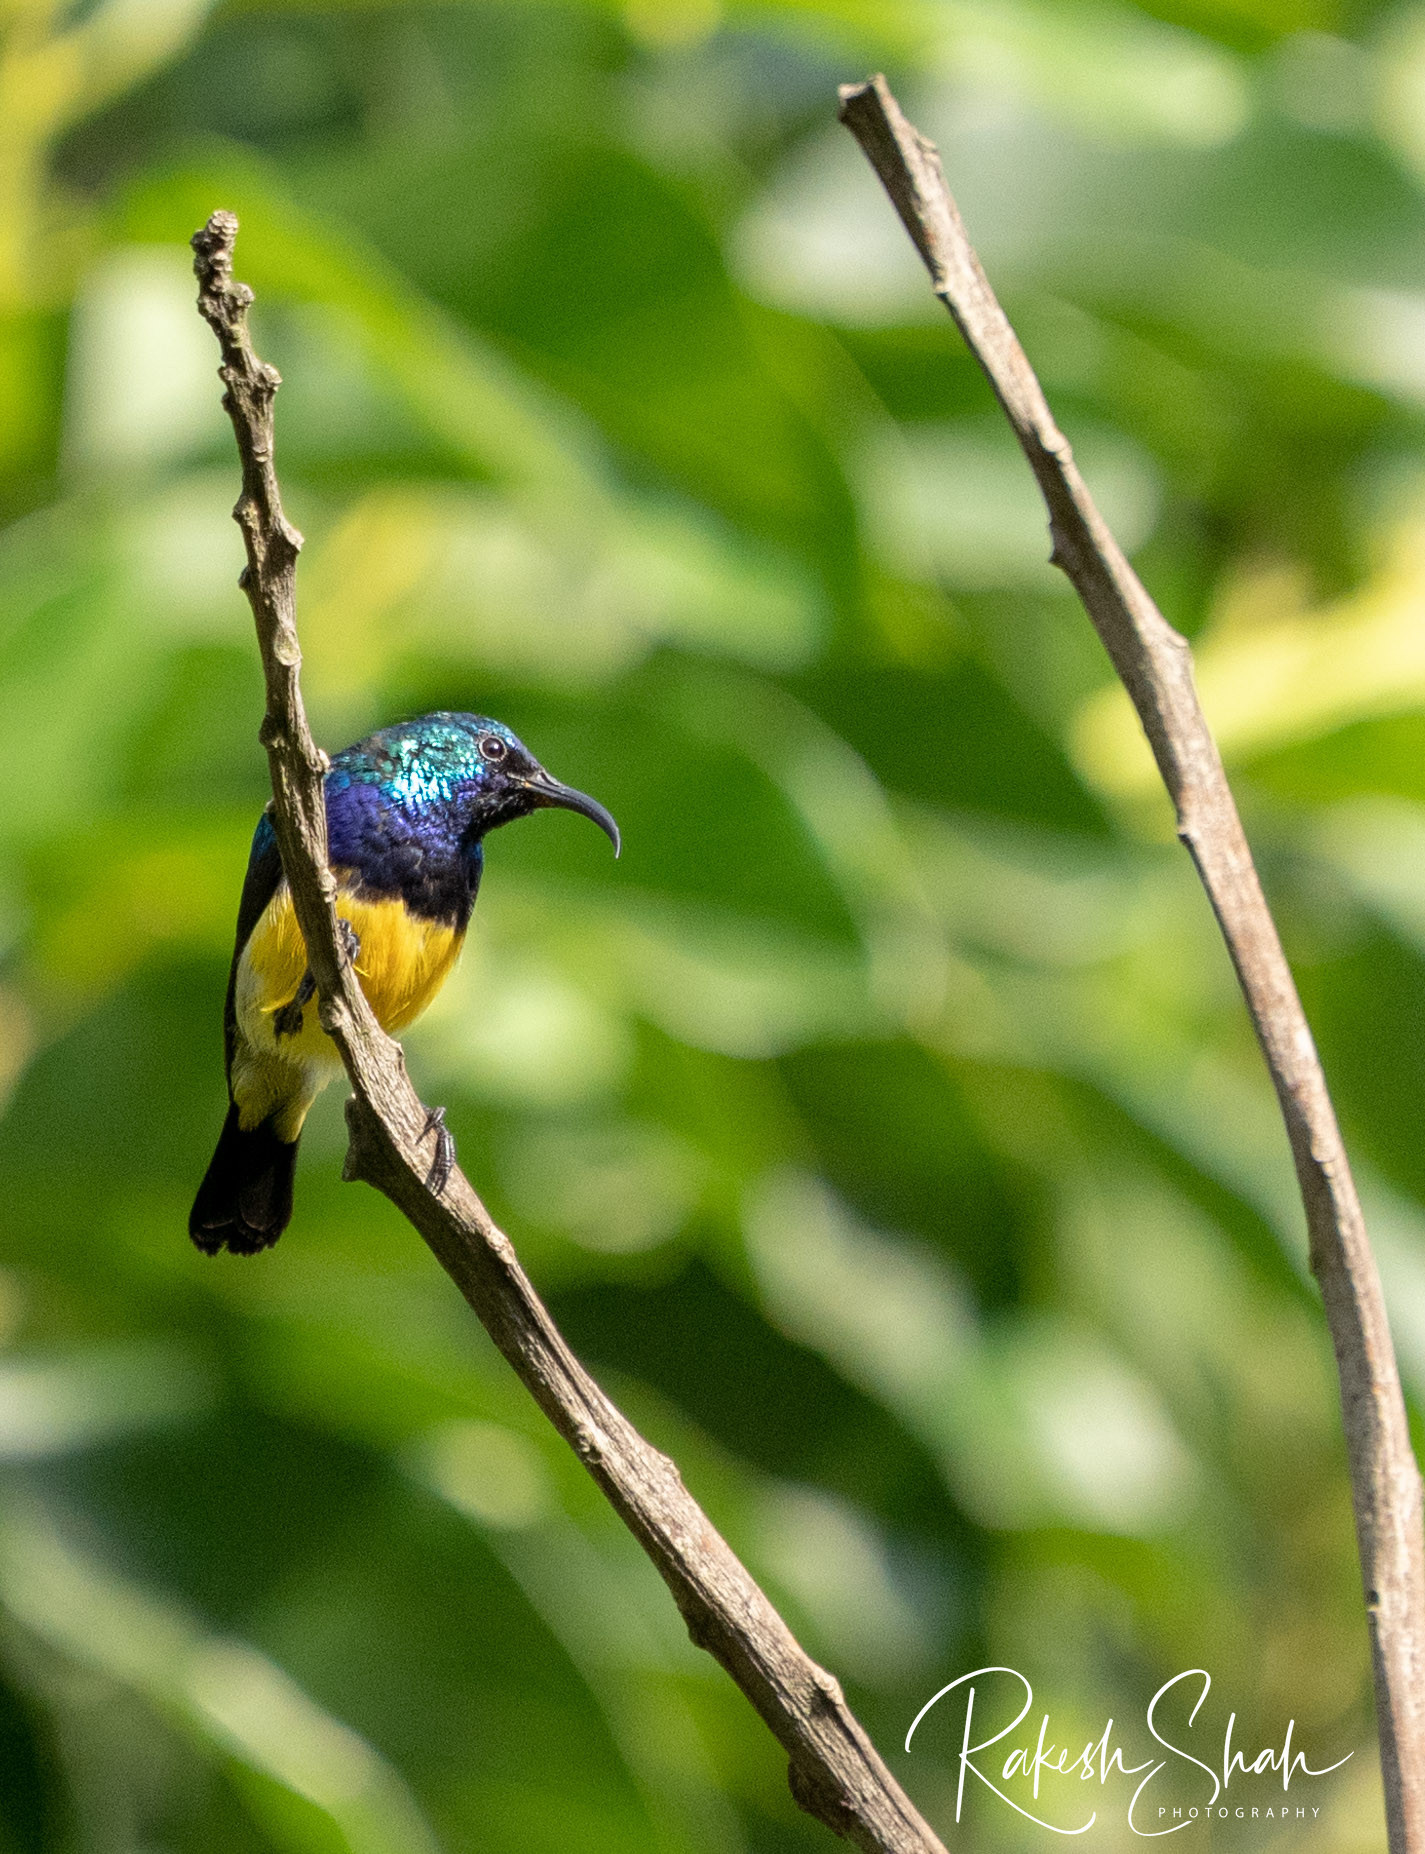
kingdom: Animalia
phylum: Chordata
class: Aves
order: Passeriformes
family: Nectariniidae
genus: Cinnyris
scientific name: Cinnyris venustus
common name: Variable sunbird
